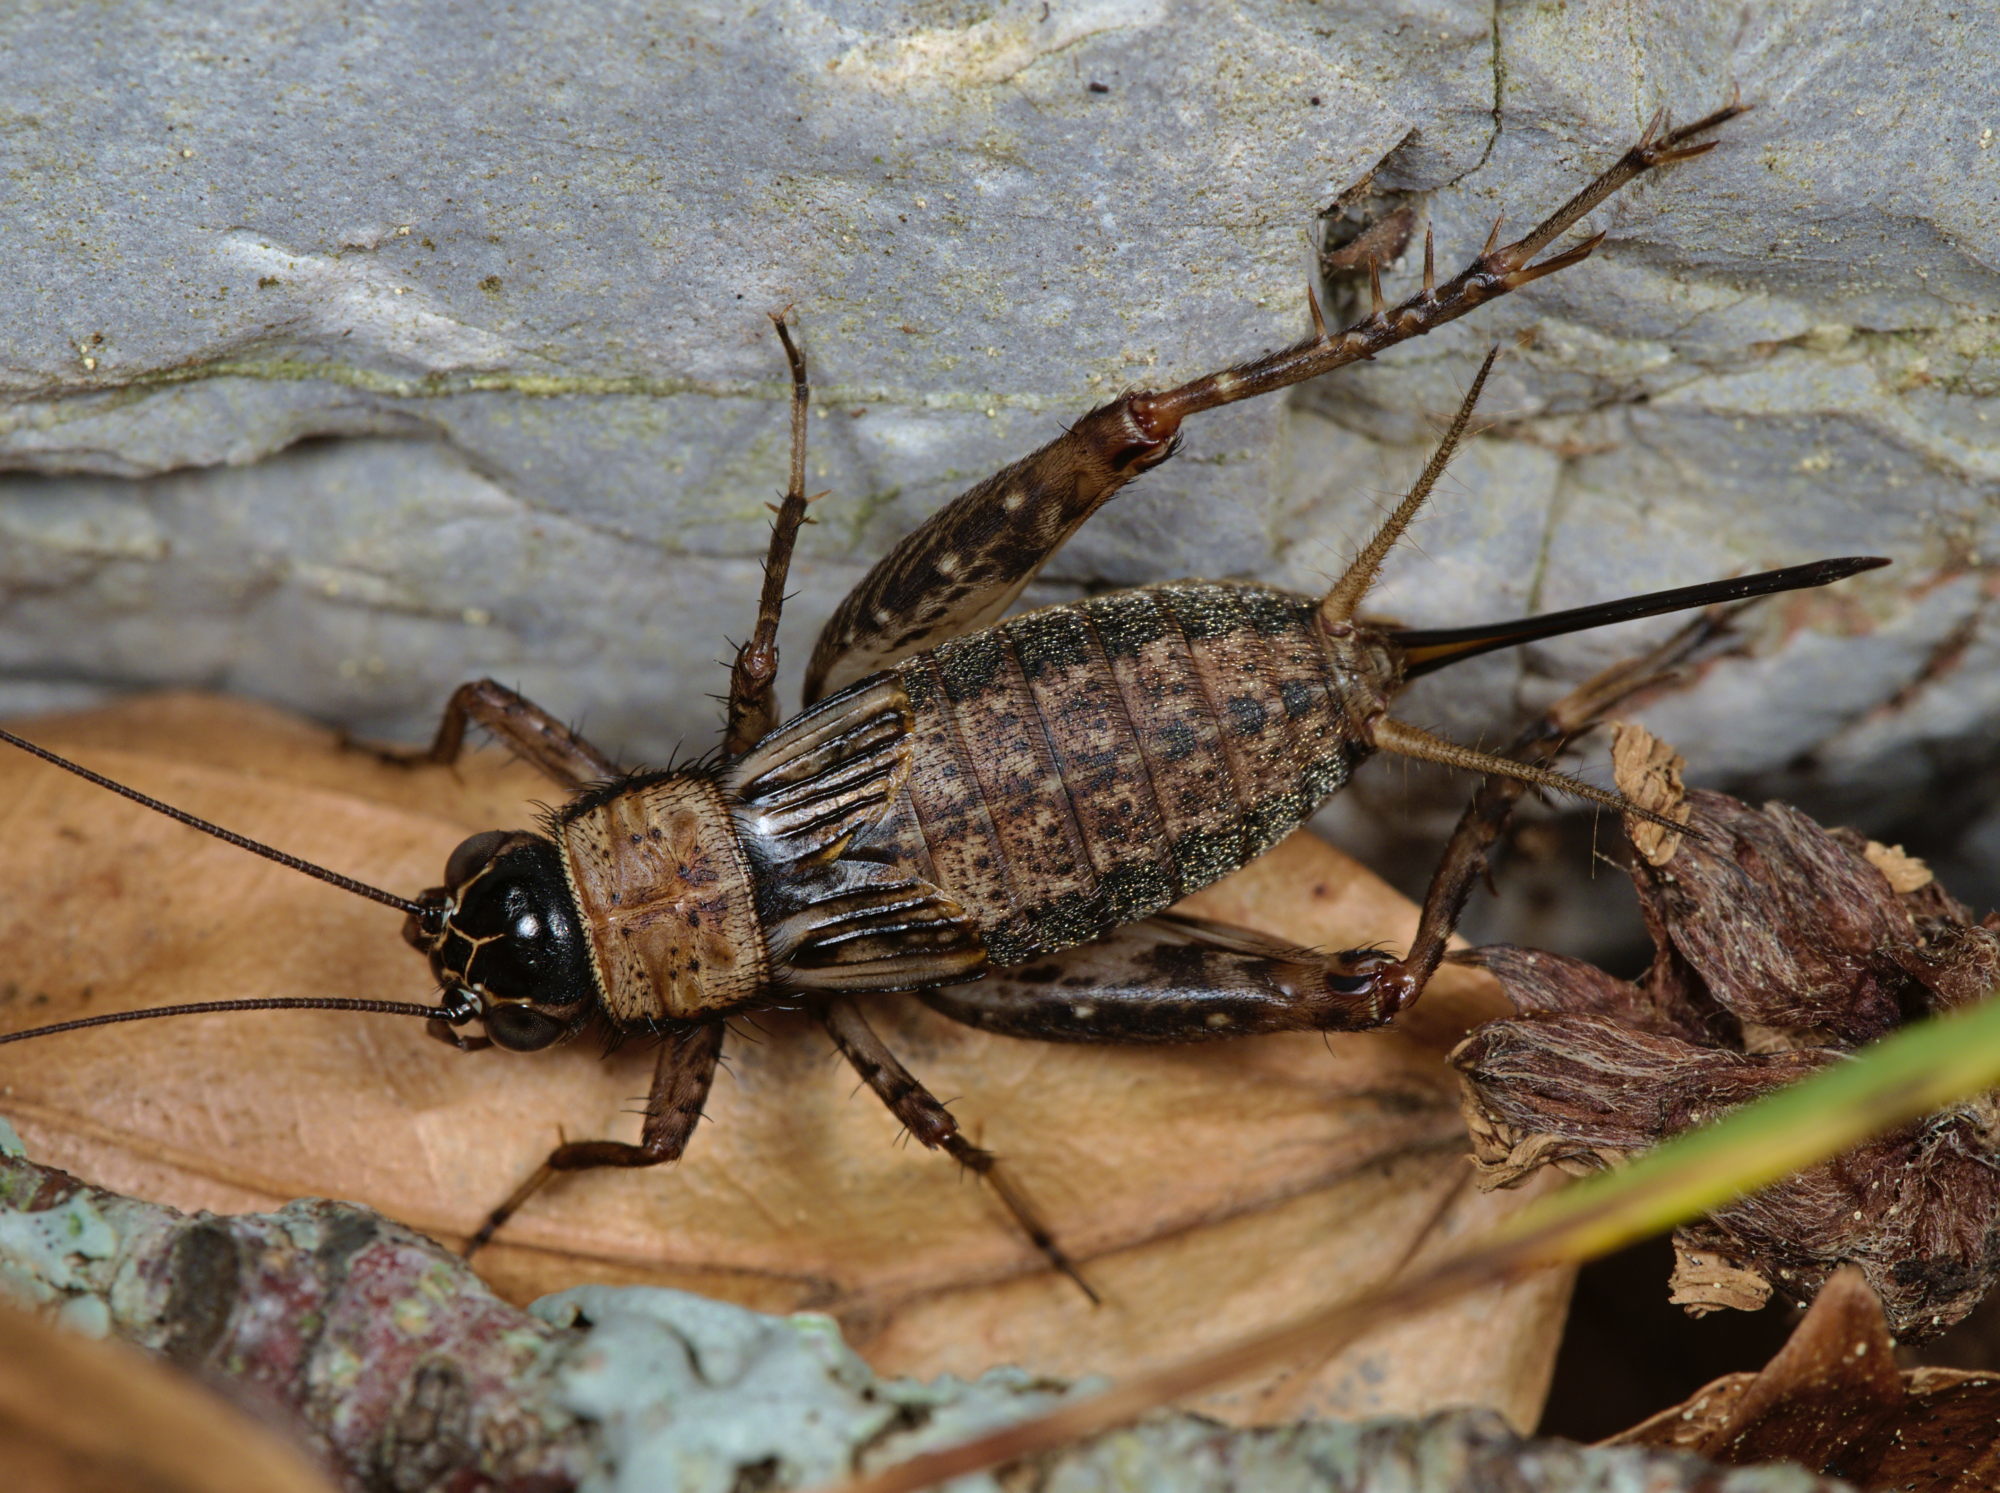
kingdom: Animalia
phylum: Arthropoda
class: Insecta
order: Orthoptera
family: Trigonidiidae
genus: Nemobius
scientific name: Nemobius sylvestris
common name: Wood-cricket
